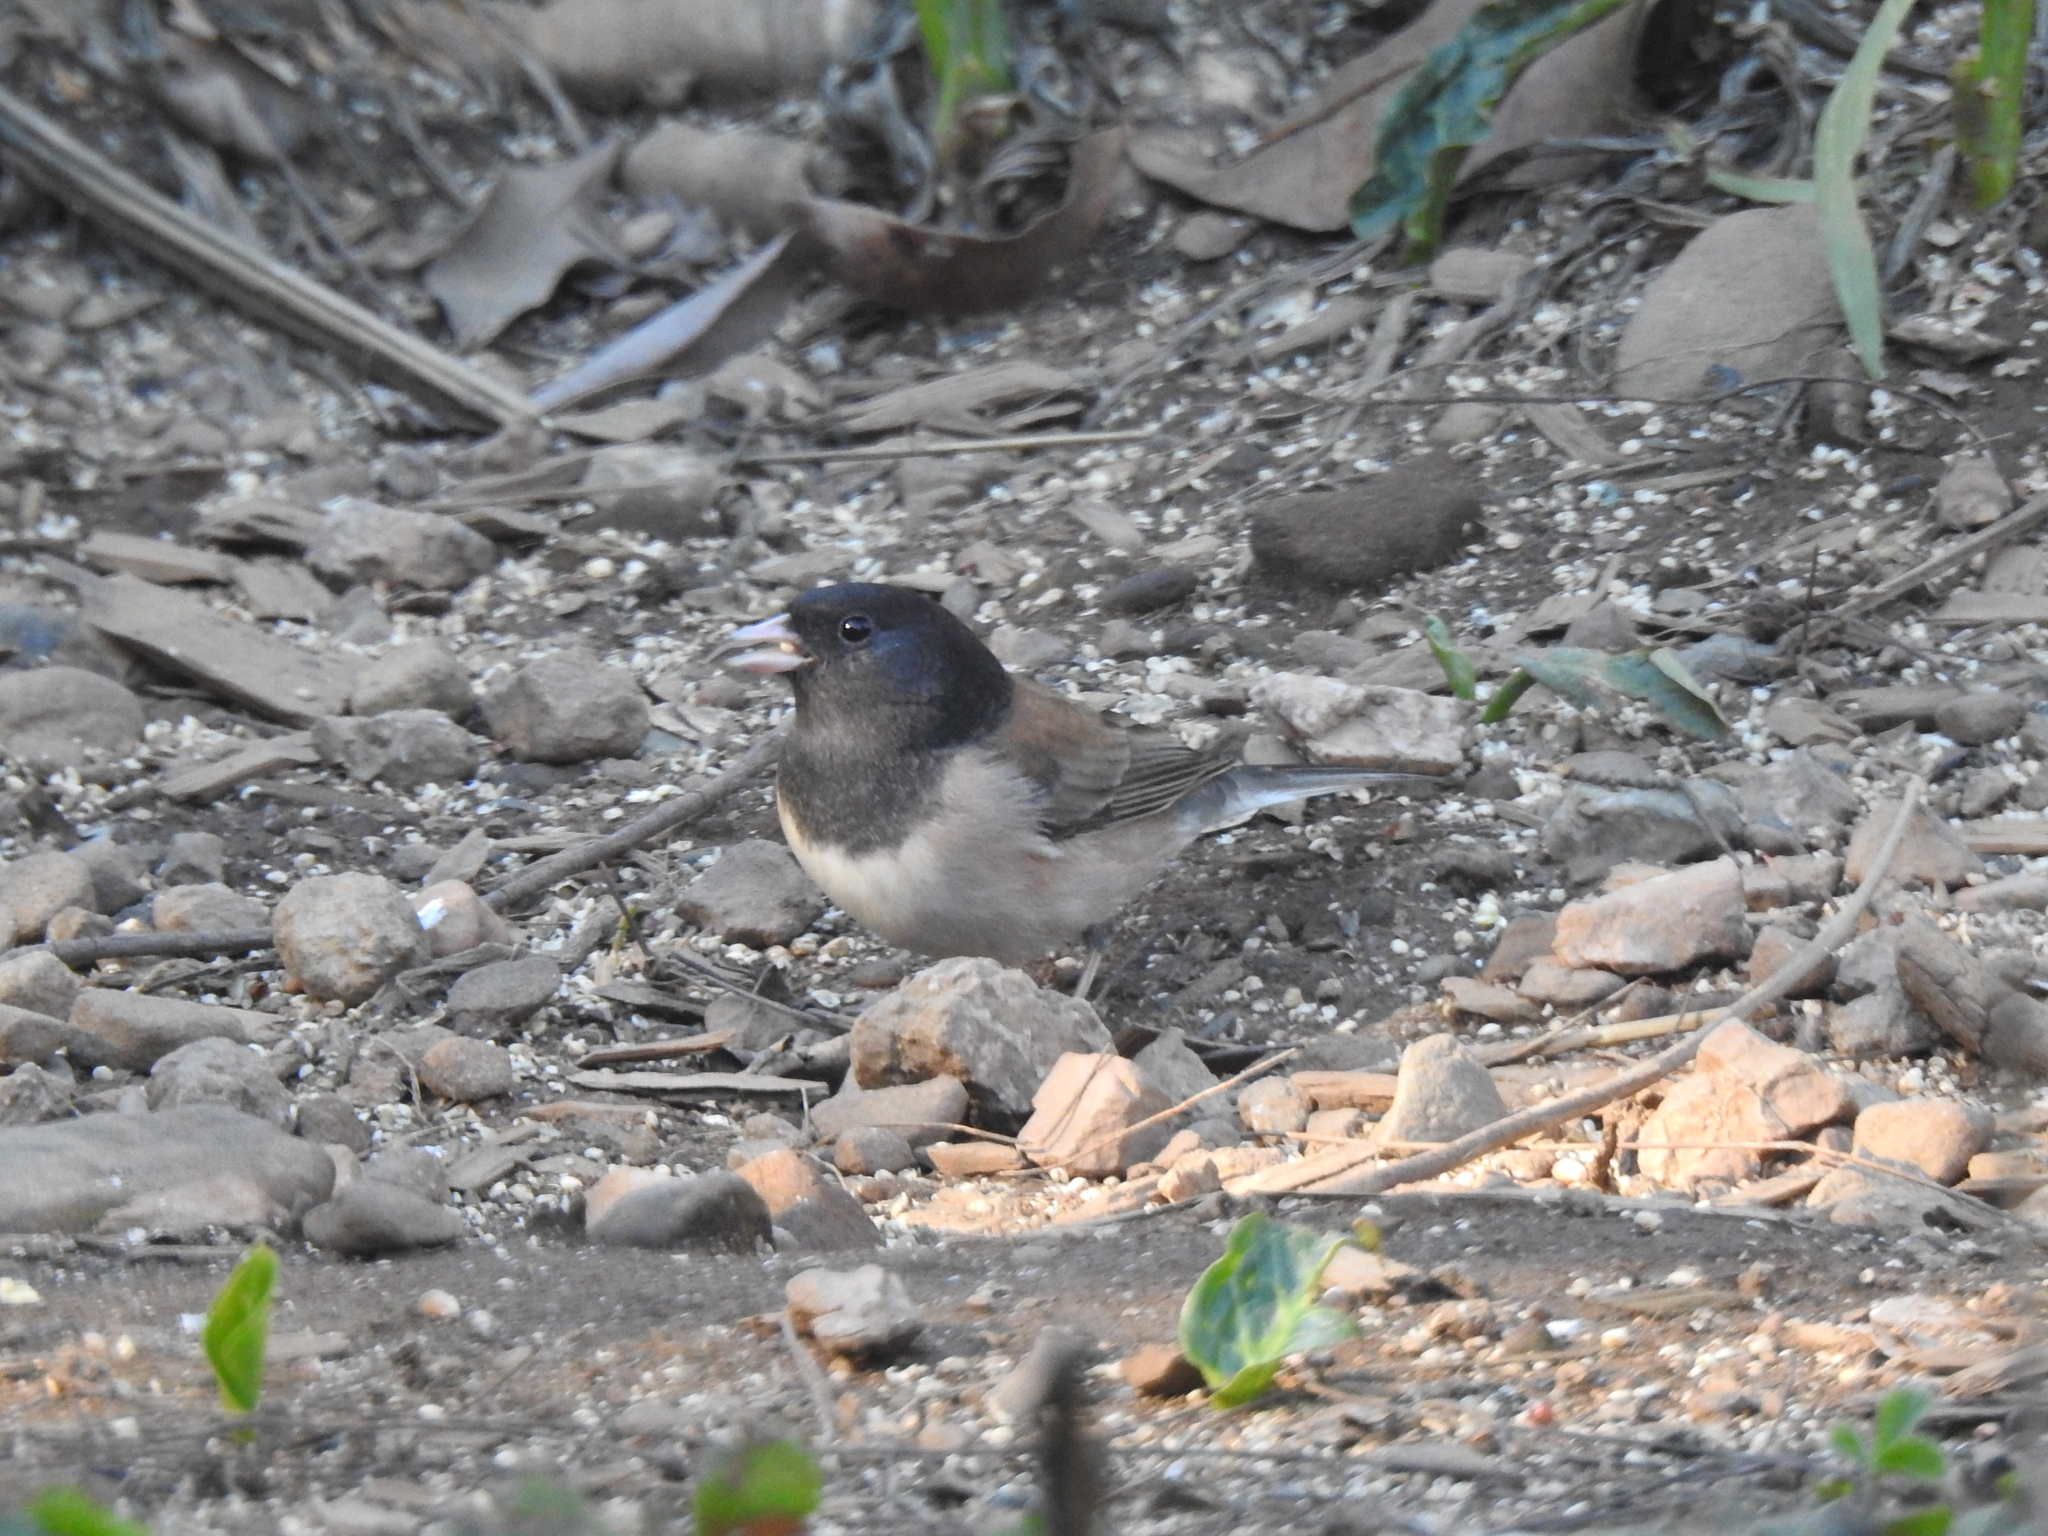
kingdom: Animalia
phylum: Chordata
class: Aves
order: Passeriformes
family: Passerellidae
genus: Junco
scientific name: Junco hyemalis
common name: Dark-eyed junco
